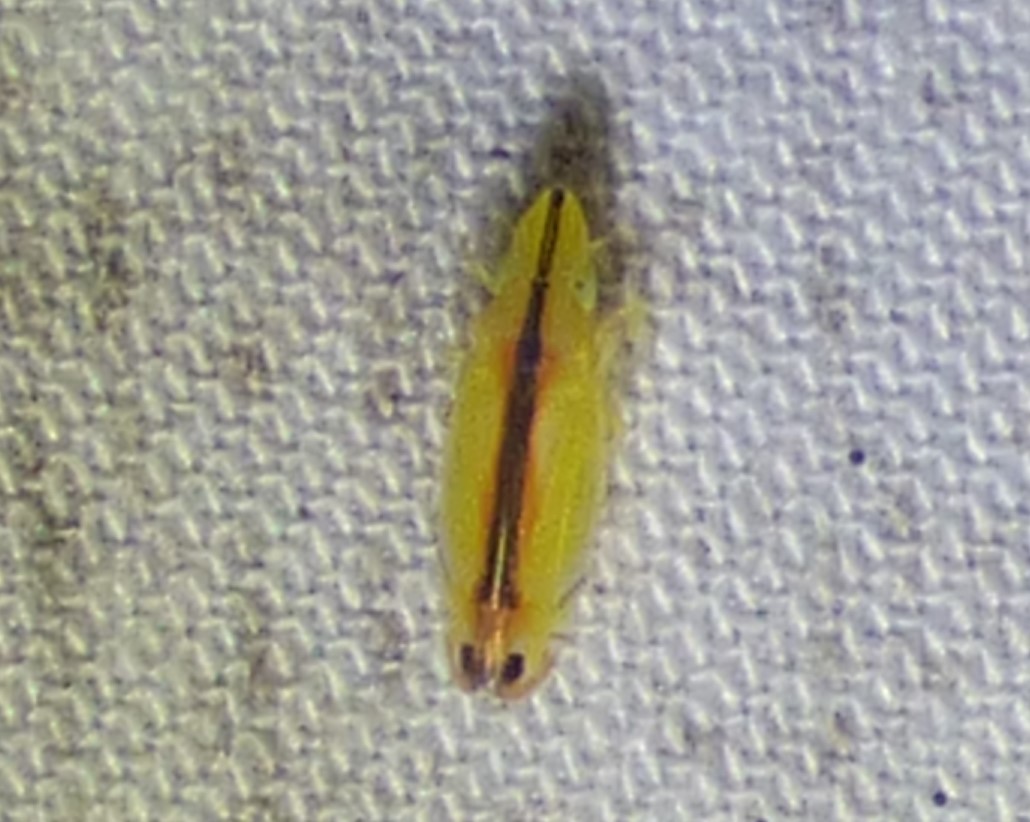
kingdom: Animalia
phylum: Arthropoda
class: Insecta
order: Hemiptera
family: Cicadellidae
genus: Sophonia
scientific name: Sophonia orientalis
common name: Two-spotted leafhopper
